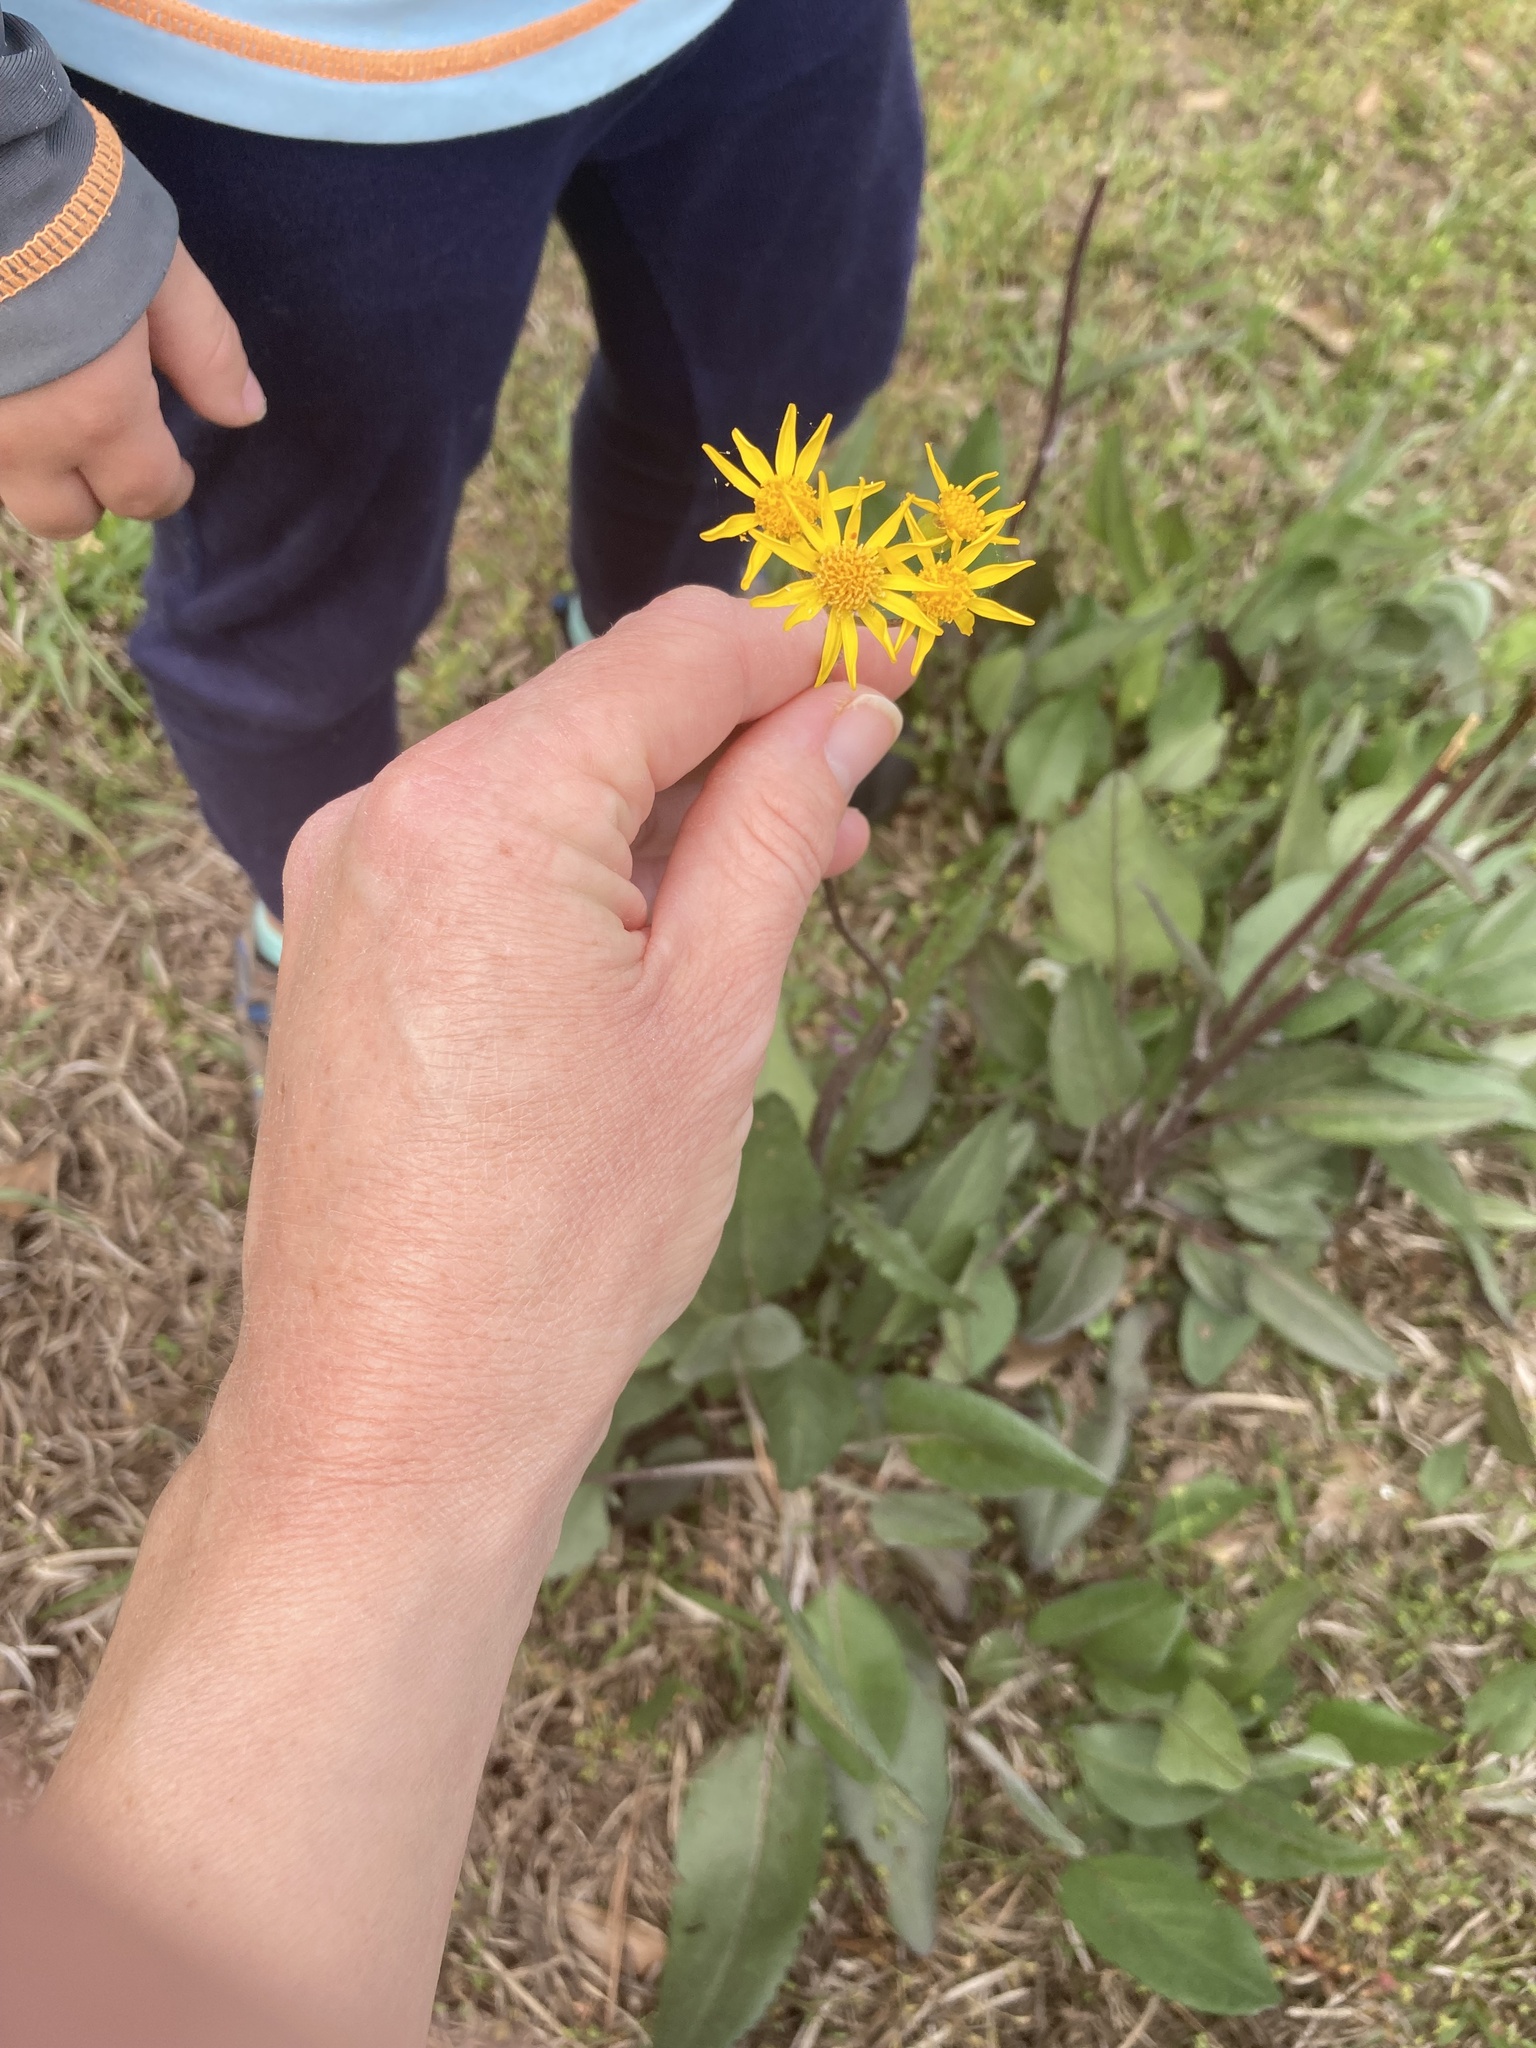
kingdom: Plantae
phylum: Tracheophyta
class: Magnoliopsida
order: Asterales
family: Asteraceae
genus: Packera
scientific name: Packera dubia
